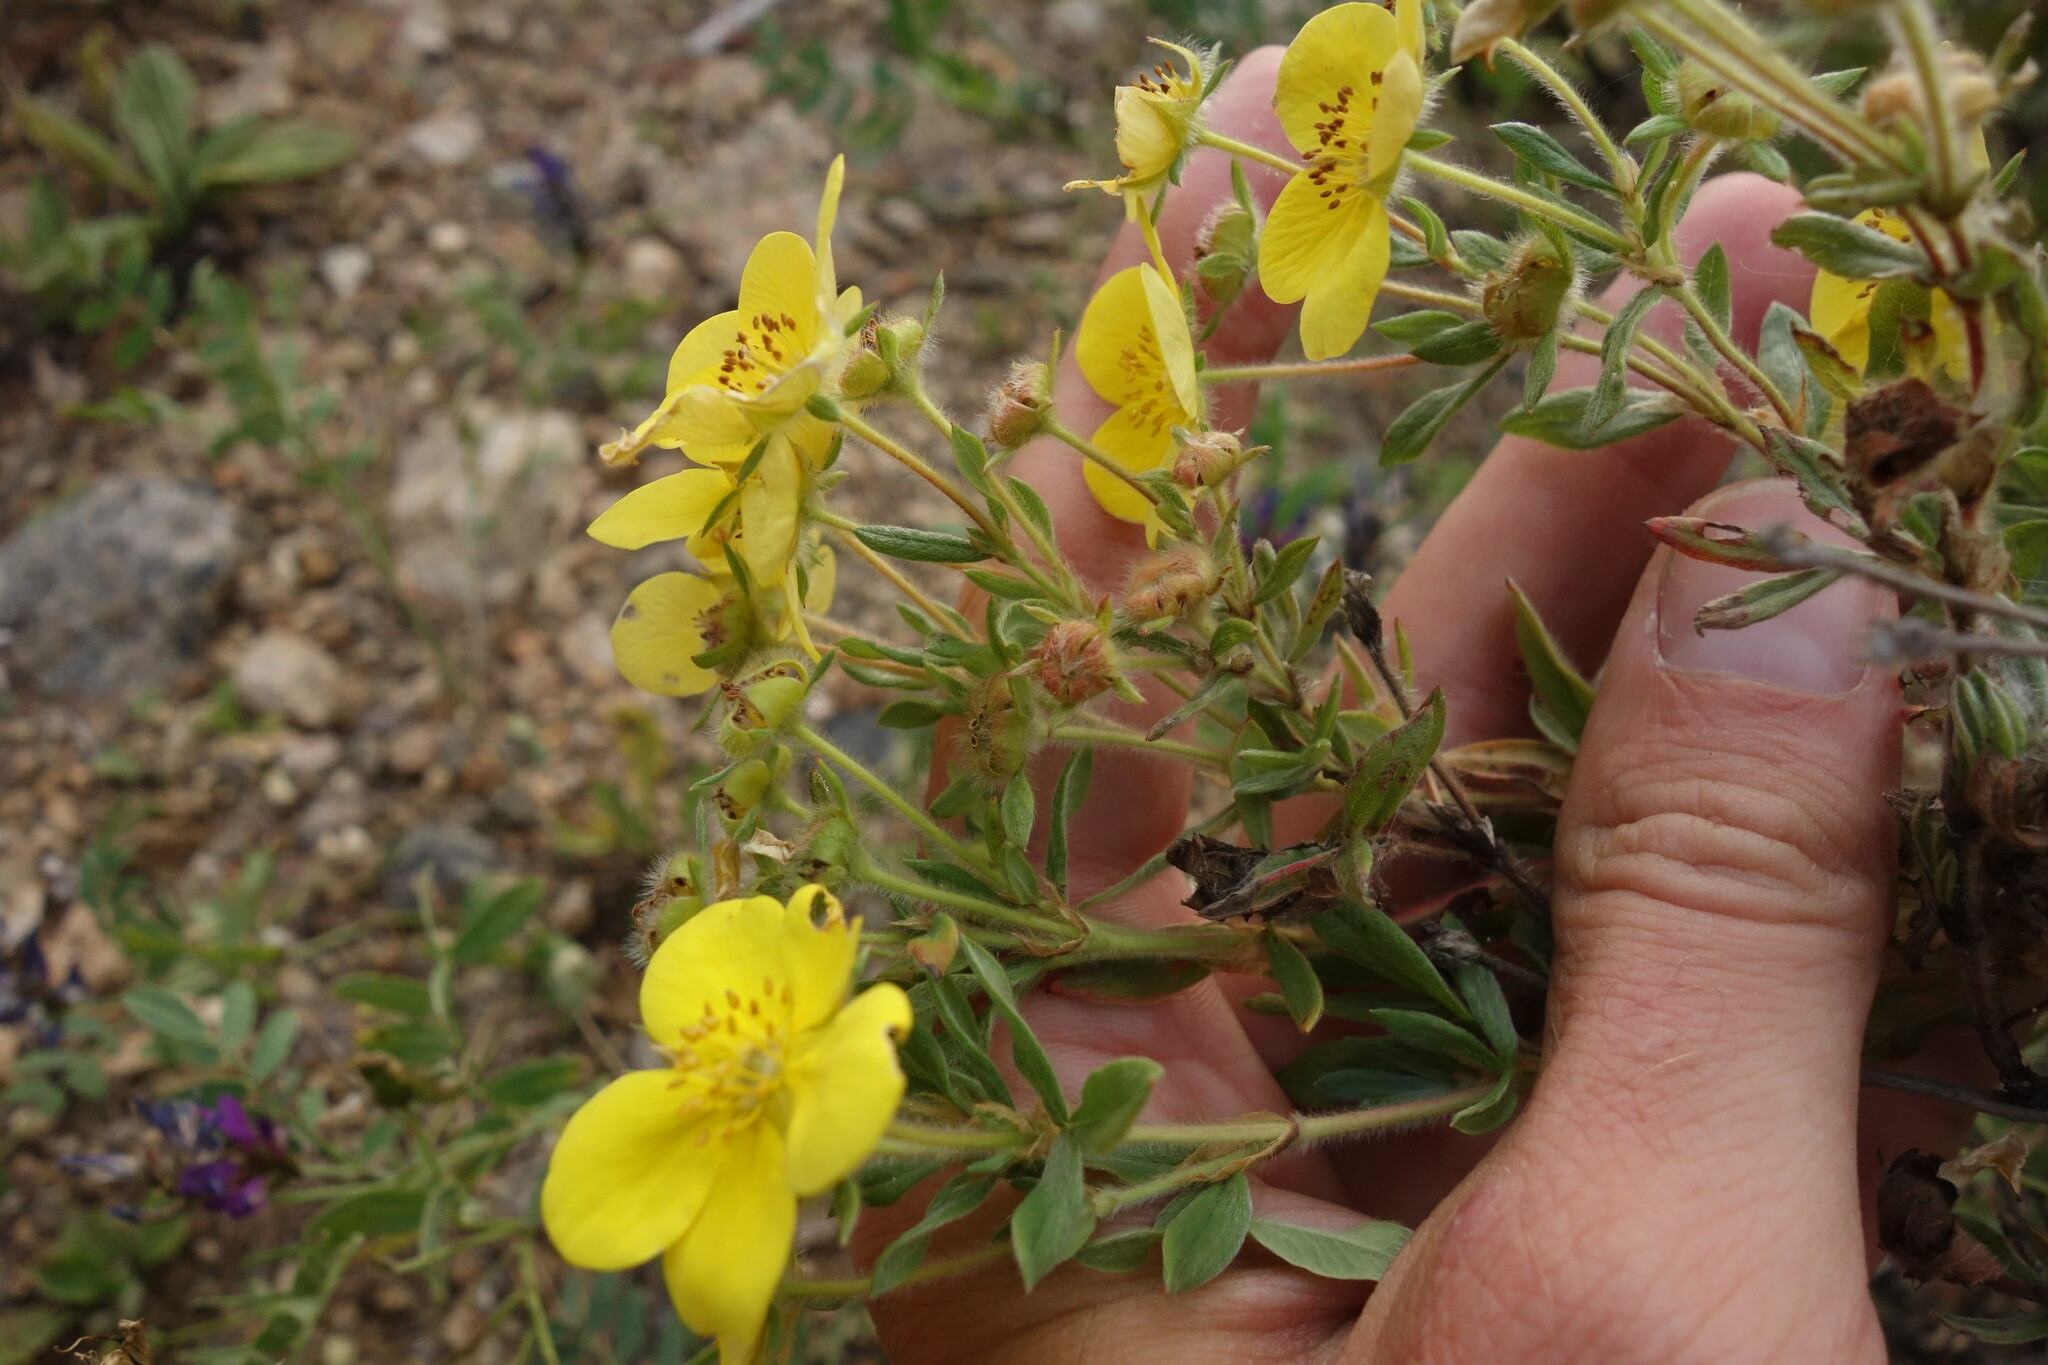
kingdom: Plantae
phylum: Tracheophyta
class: Magnoliopsida
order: Rosales
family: Rosaceae
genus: Dasiphora
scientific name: Dasiphora fruticosa
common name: Shrubby cinquefoil
